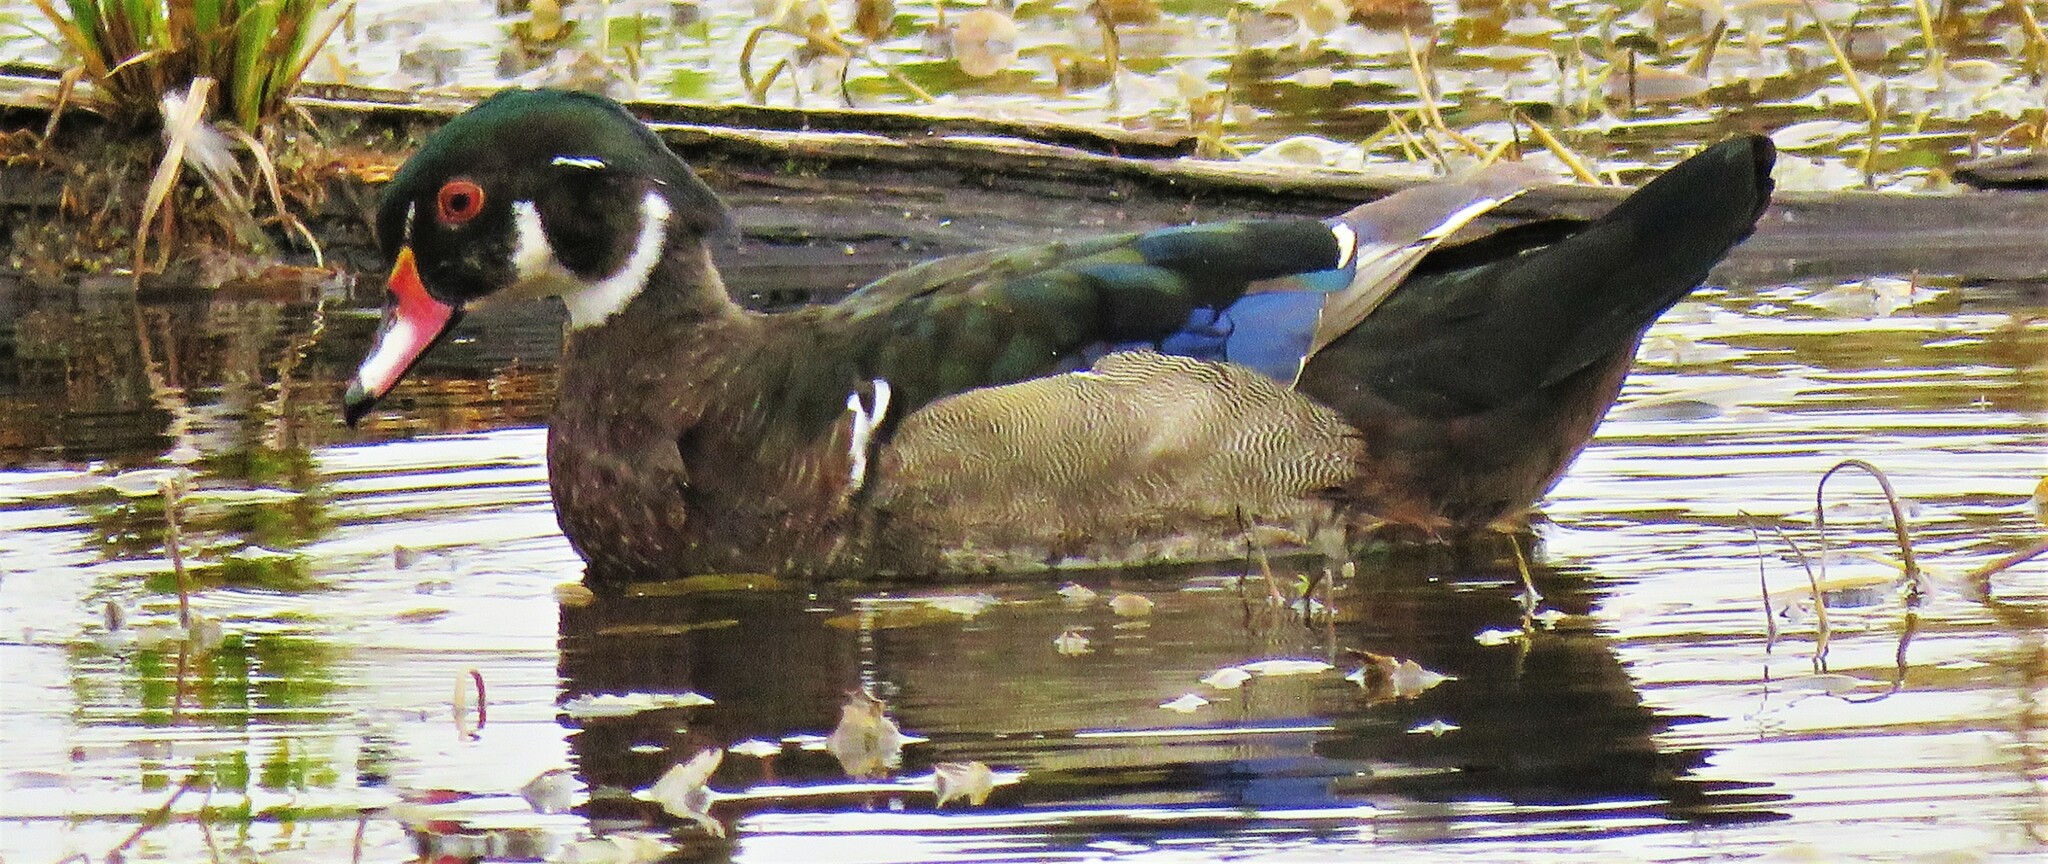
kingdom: Animalia
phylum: Chordata
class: Aves
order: Anseriformes
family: Anatidae
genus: Aix
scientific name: Aix sponsa
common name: Wood duck
